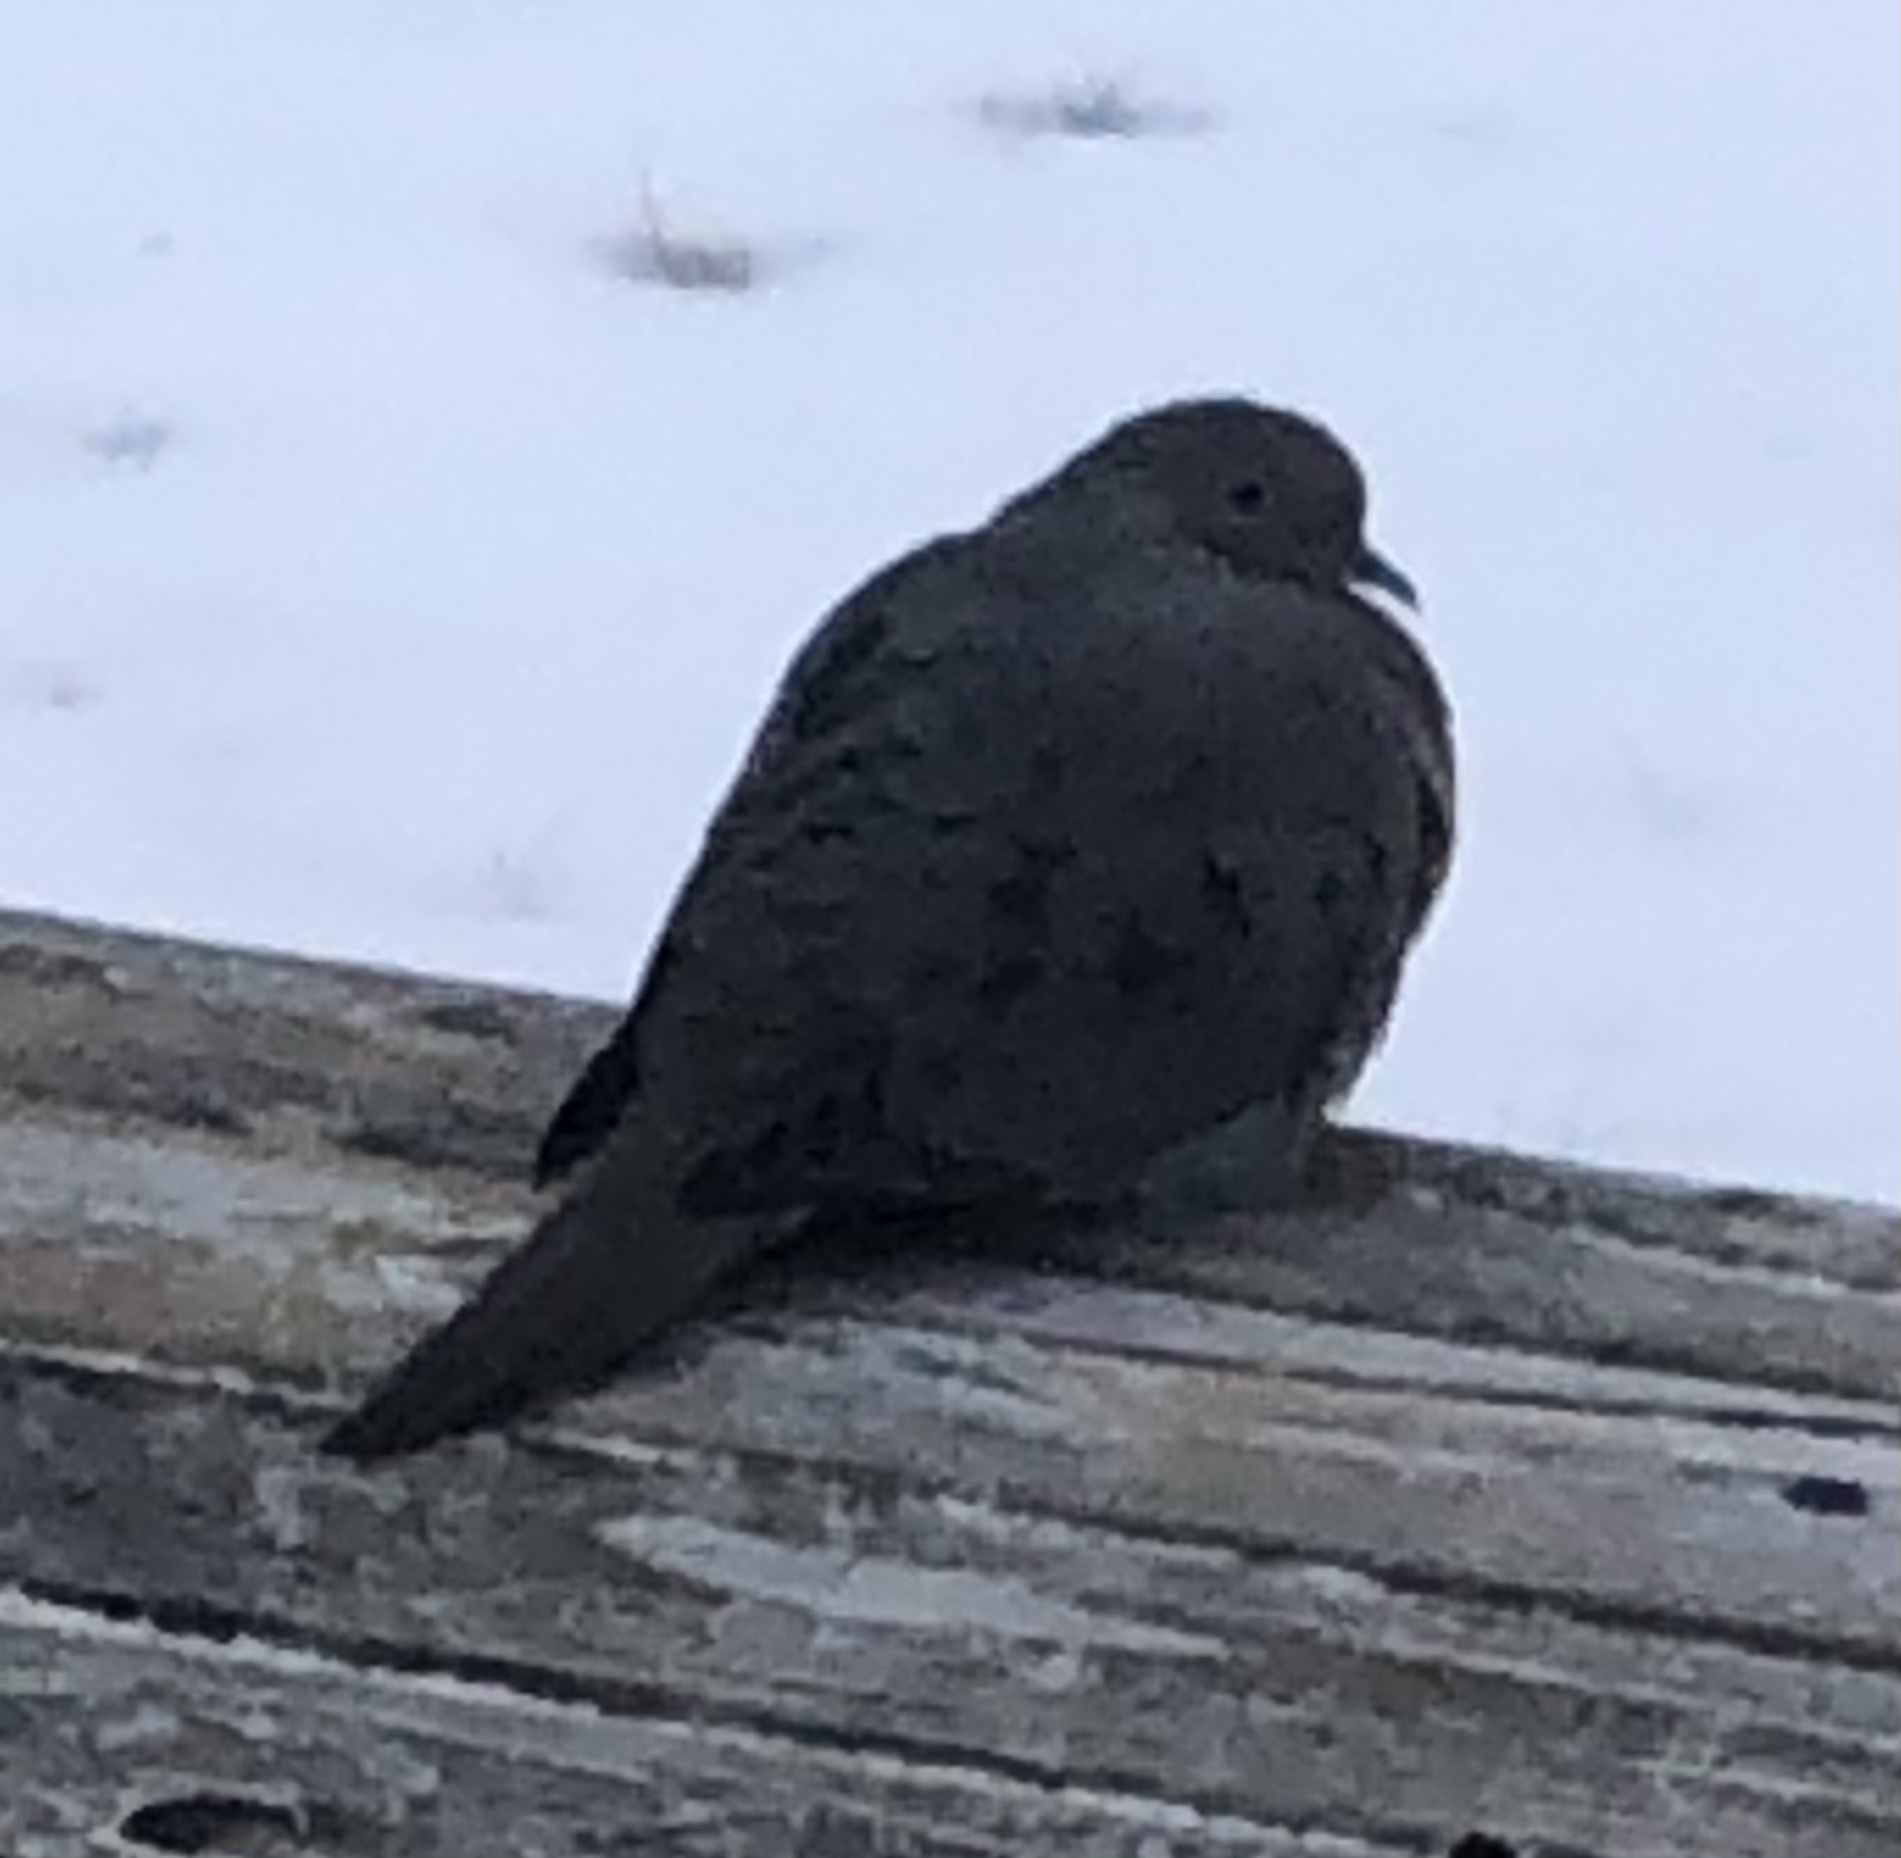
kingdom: Animalia
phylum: Chordata
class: Aves
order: Columbiformes
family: Columbidae
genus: Zenaida
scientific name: Zenaida macroura
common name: Mourning dove
